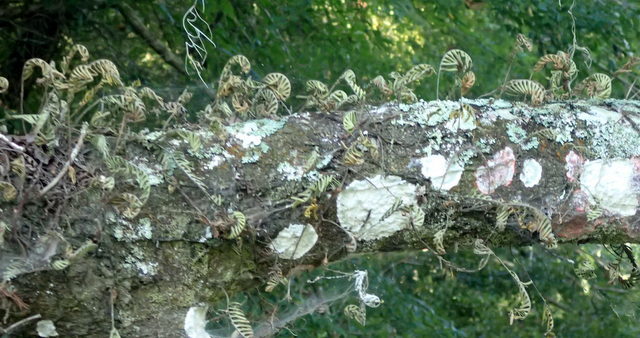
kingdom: Plantae
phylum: Tracheophyta
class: Polypodiopsida
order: Polypodiales
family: Polypodiaceae
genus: Pleopeltis
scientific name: Pleopeltis michauxiana
